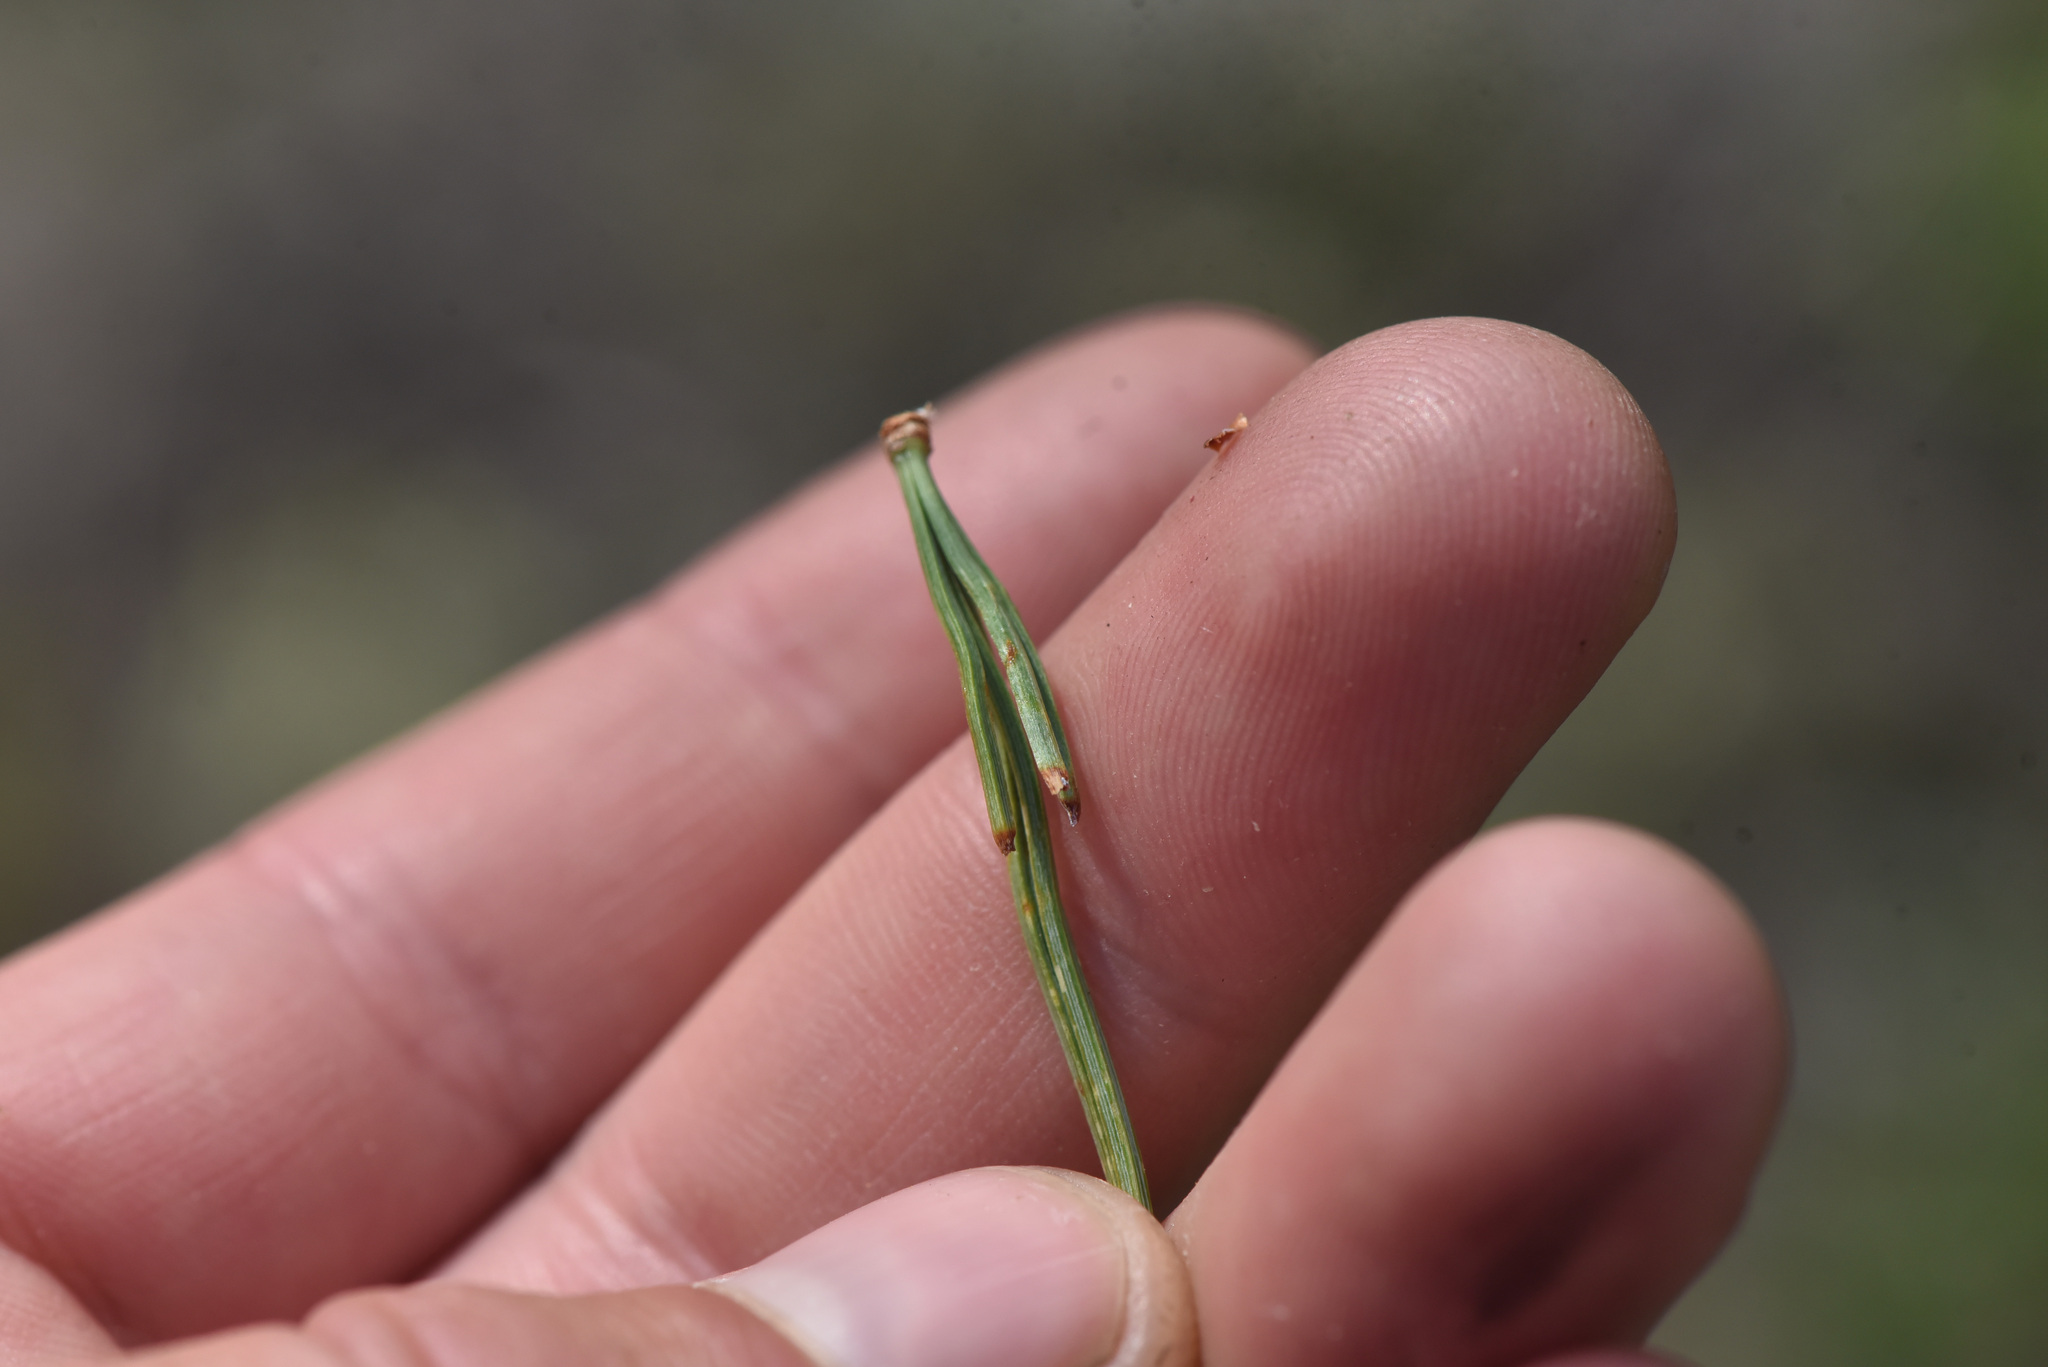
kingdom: Plantae
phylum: Tracheophyta
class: Pinopsida
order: Pinales
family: Pinaceae
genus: Pinus
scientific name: Pinus albicaulis
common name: Whitebark pine
